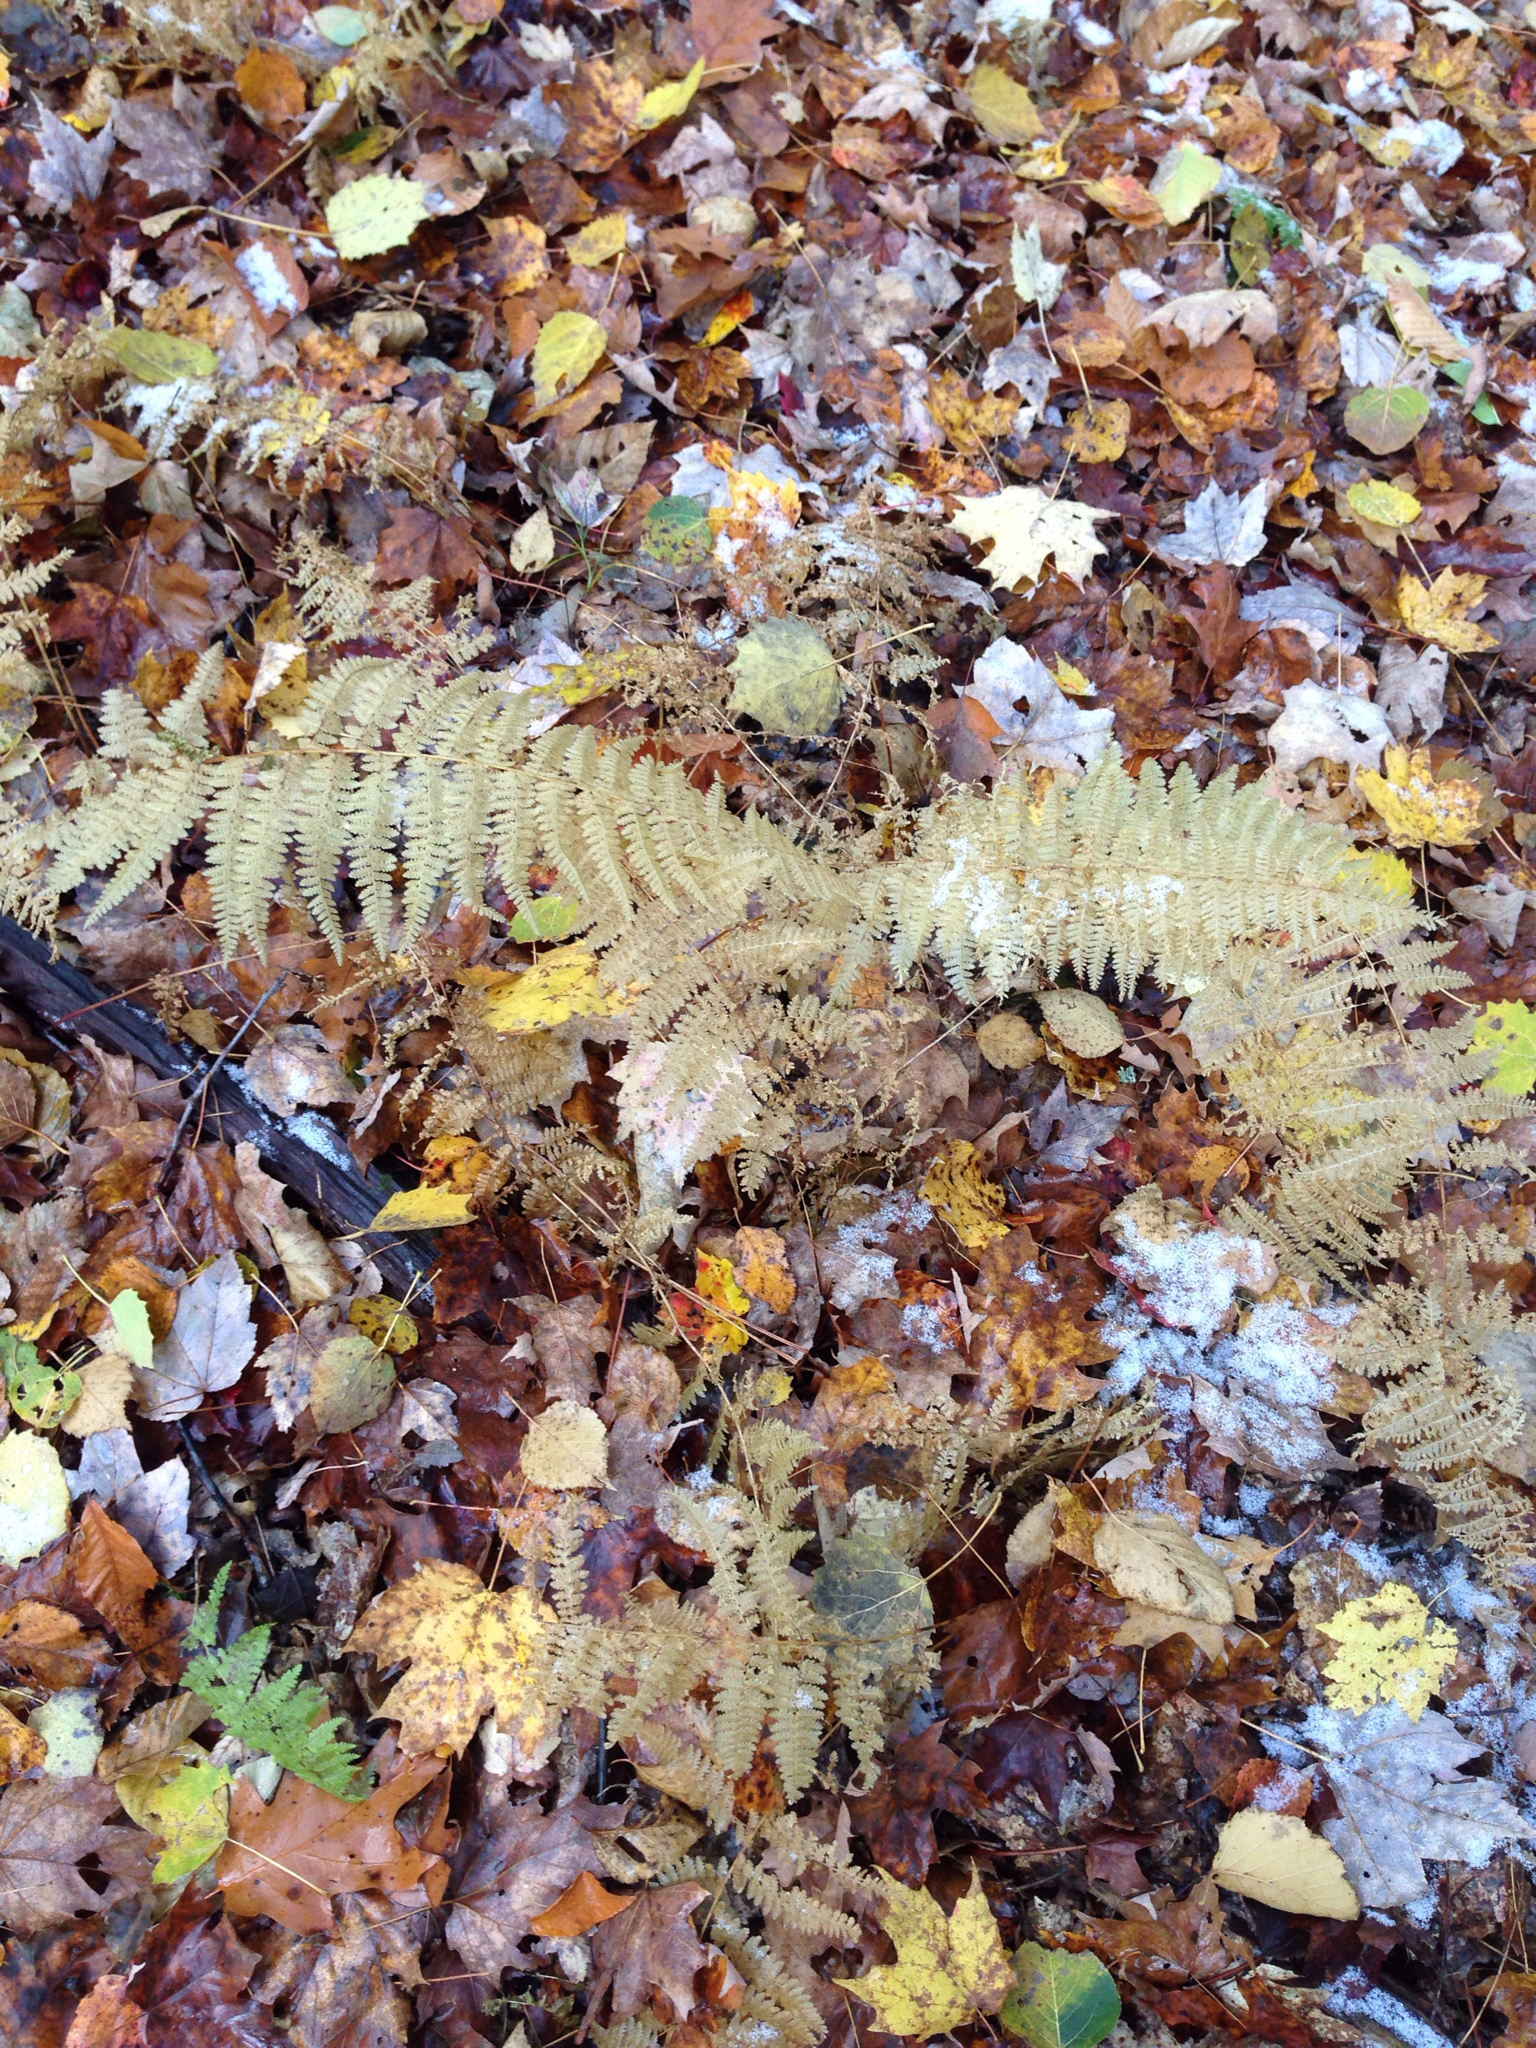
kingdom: Plantae
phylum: Tracheophyta
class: Polypodiopsida
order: Polypodiales
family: Dennstaedtiaceae
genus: Sitobolium
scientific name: Sitobolium punctilobum
